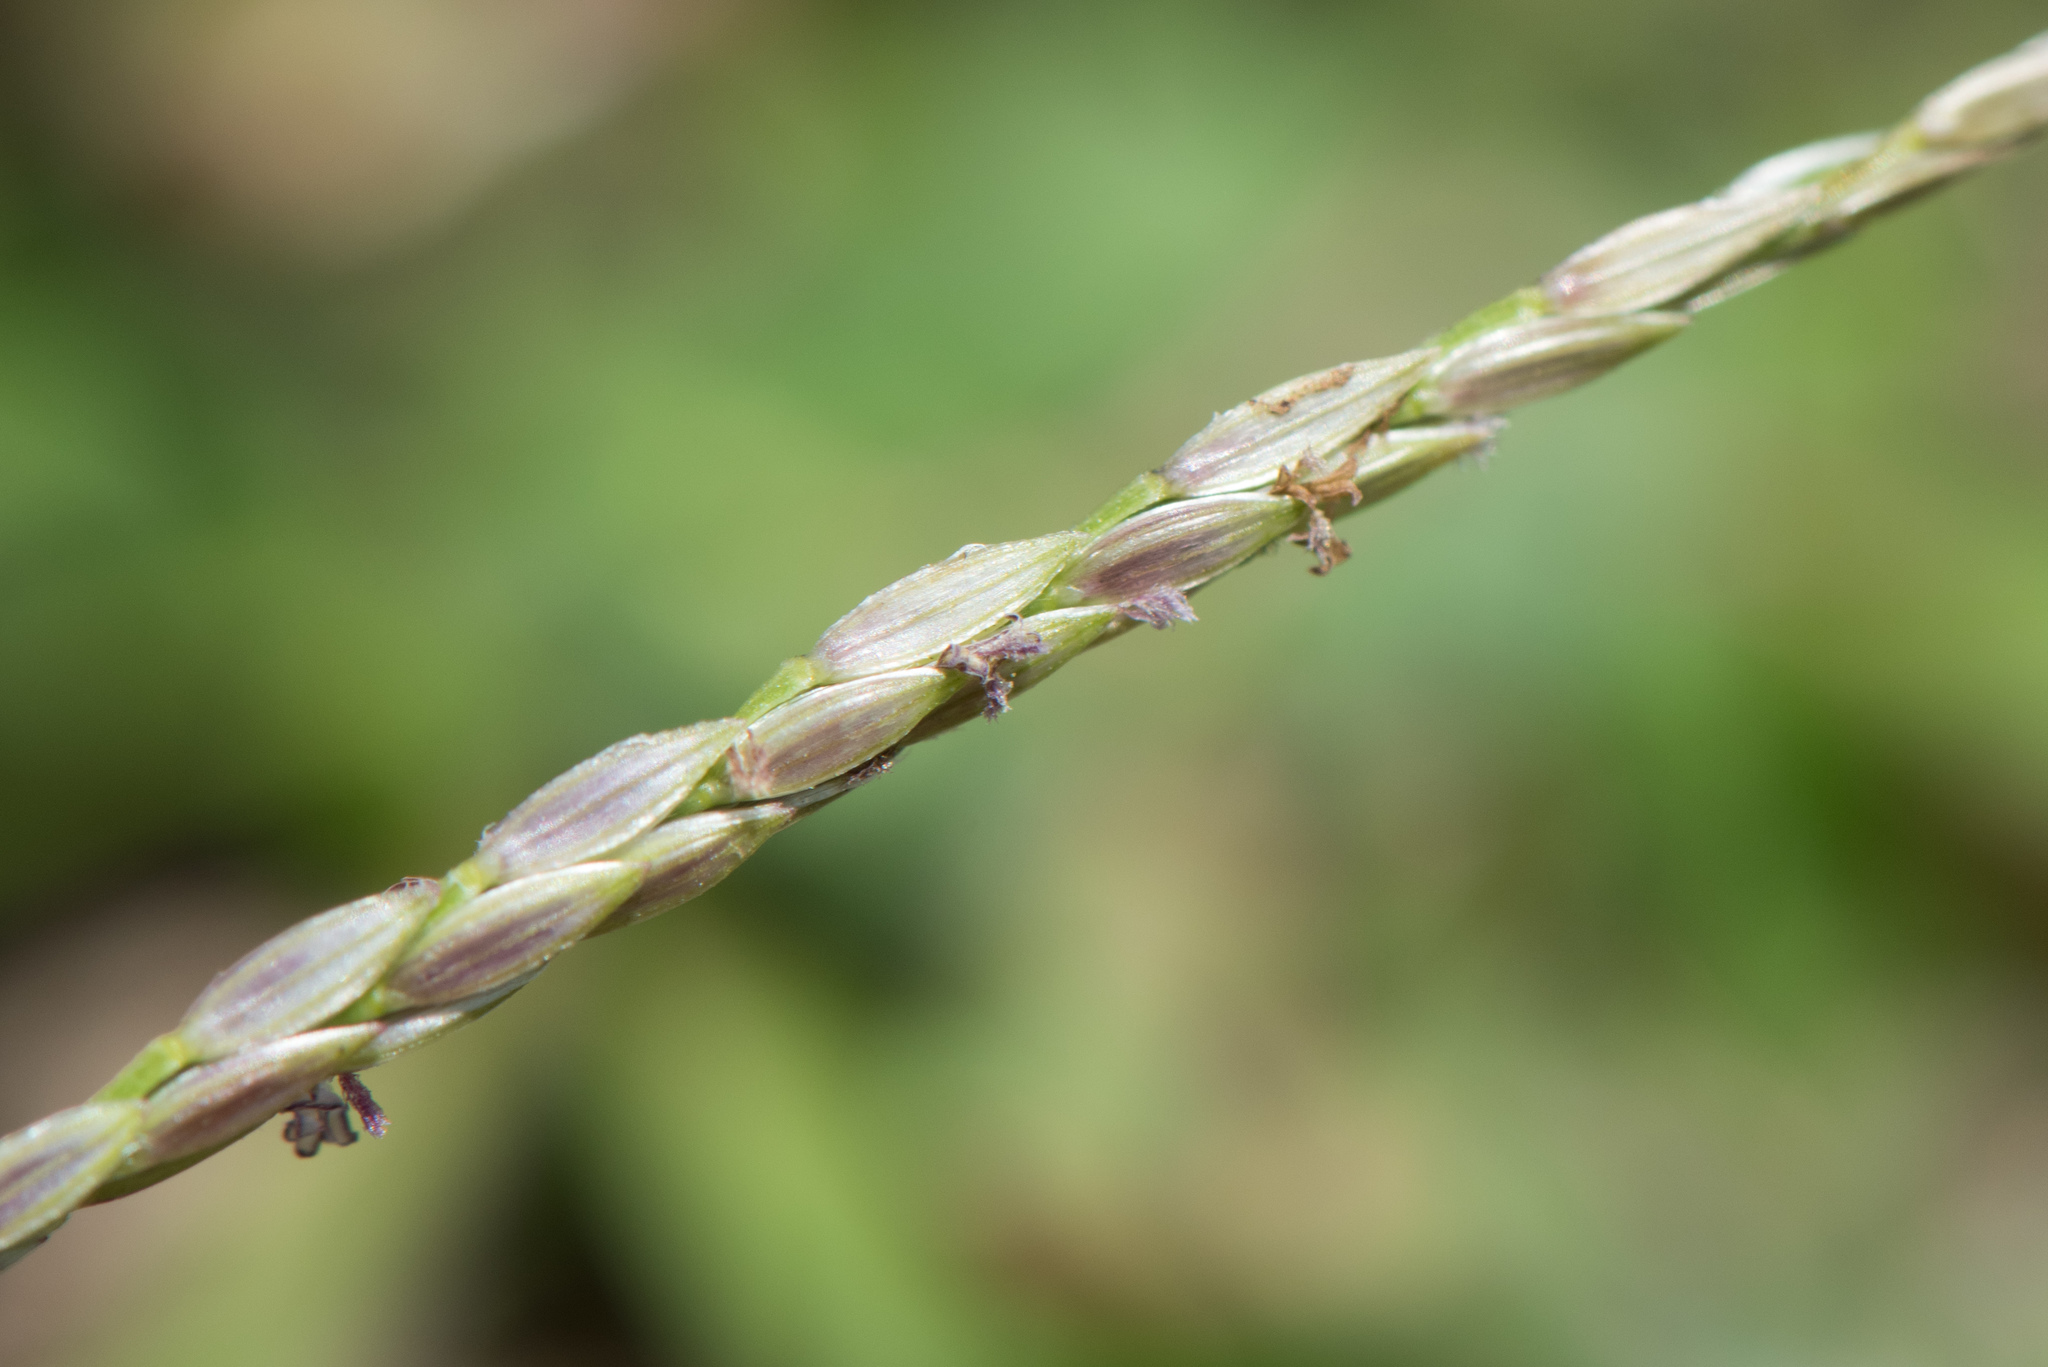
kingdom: Plantae
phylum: Tracheophyta
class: Liliopsida
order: Poales
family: Poaceae
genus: Digitaria
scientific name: Digitaria sericea
